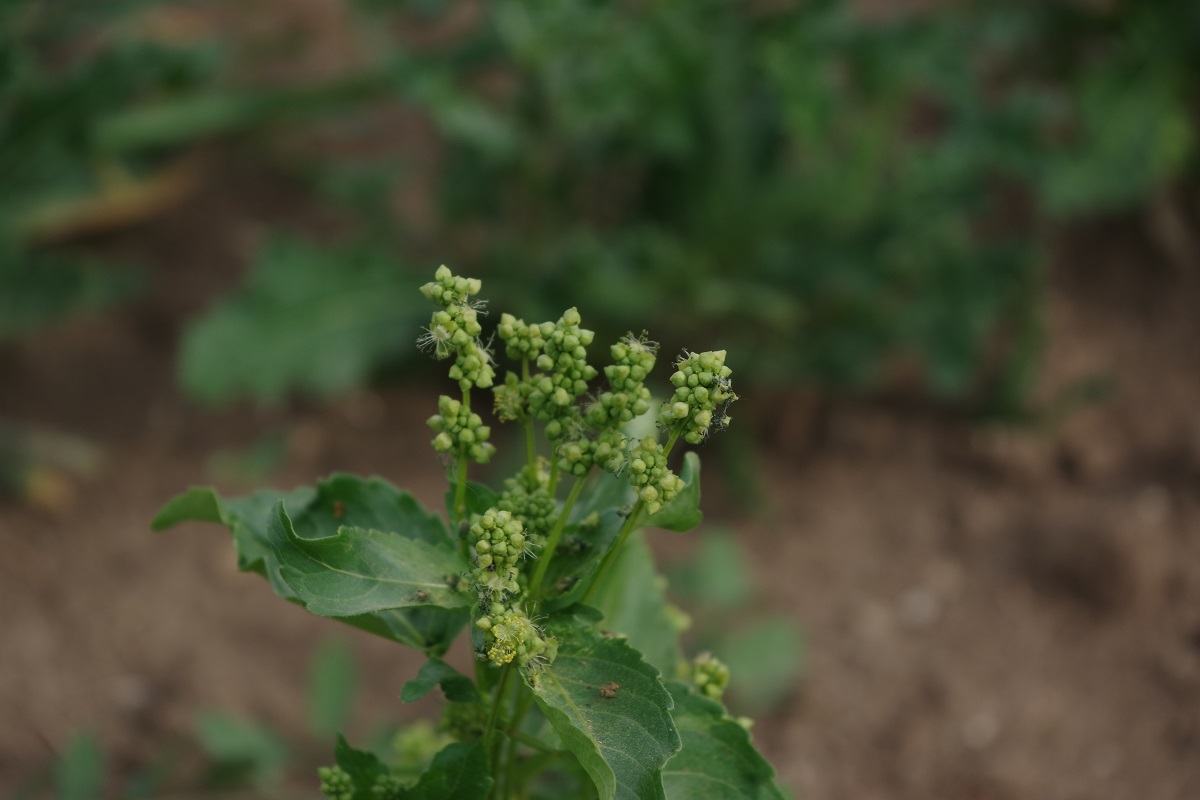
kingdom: Plantae
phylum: Tracheophyta
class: Magnoliopsida
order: Malpighiales
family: Euphorbiaceae
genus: Mercurialis
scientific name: Mercurialis annua
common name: Annual mercury
